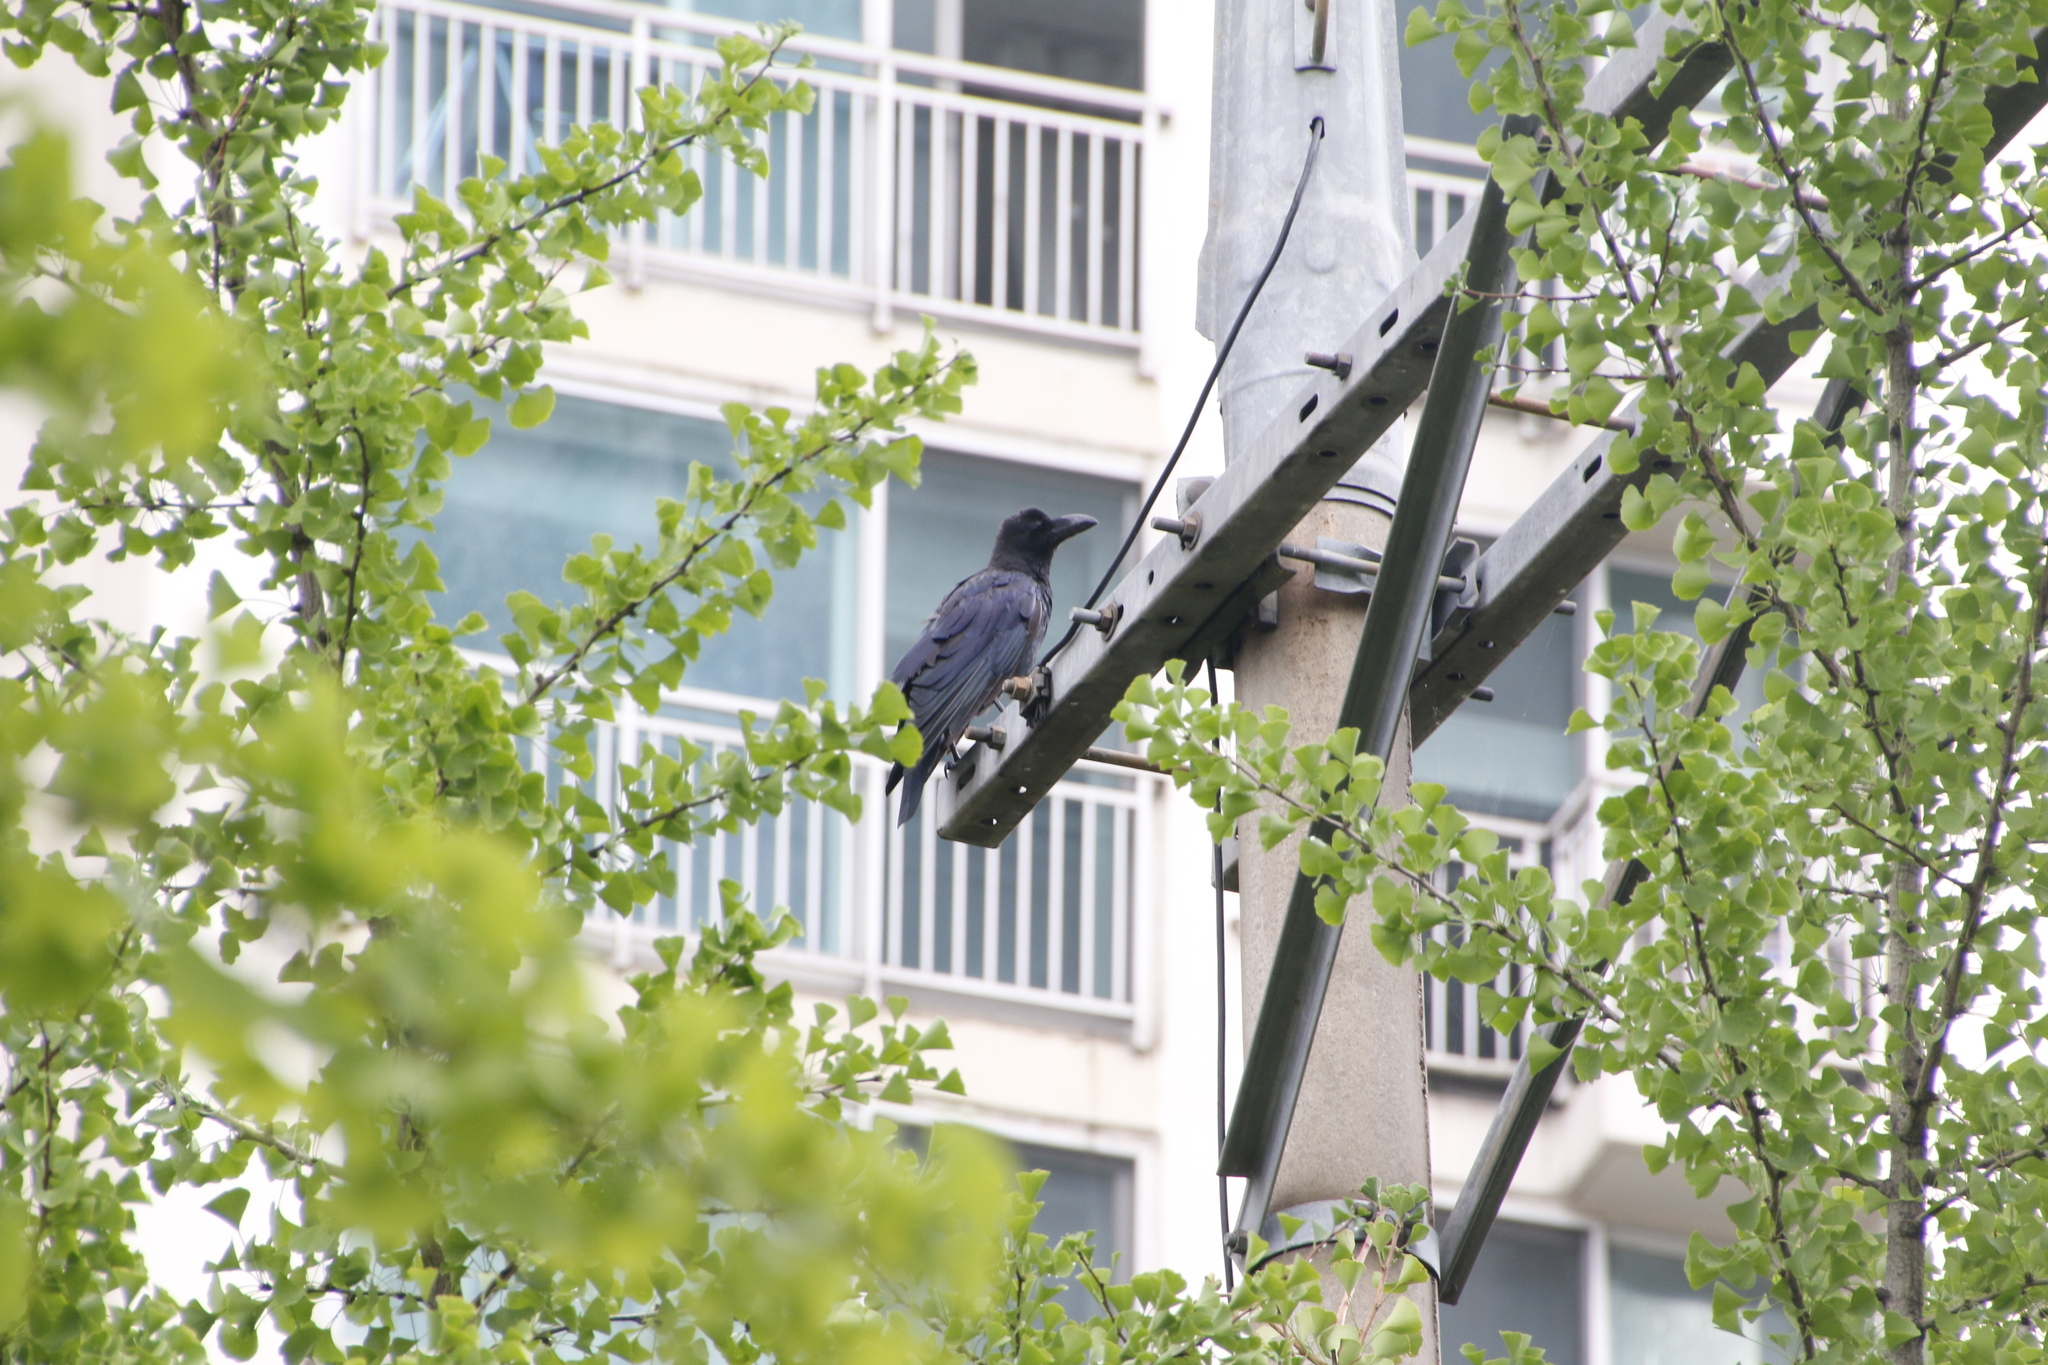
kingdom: Animalia
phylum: Chordata
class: Aves
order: Passeriformes
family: Corvidae
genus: Corvus
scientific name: Corvus macrorhynchos
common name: Large-billed crow
